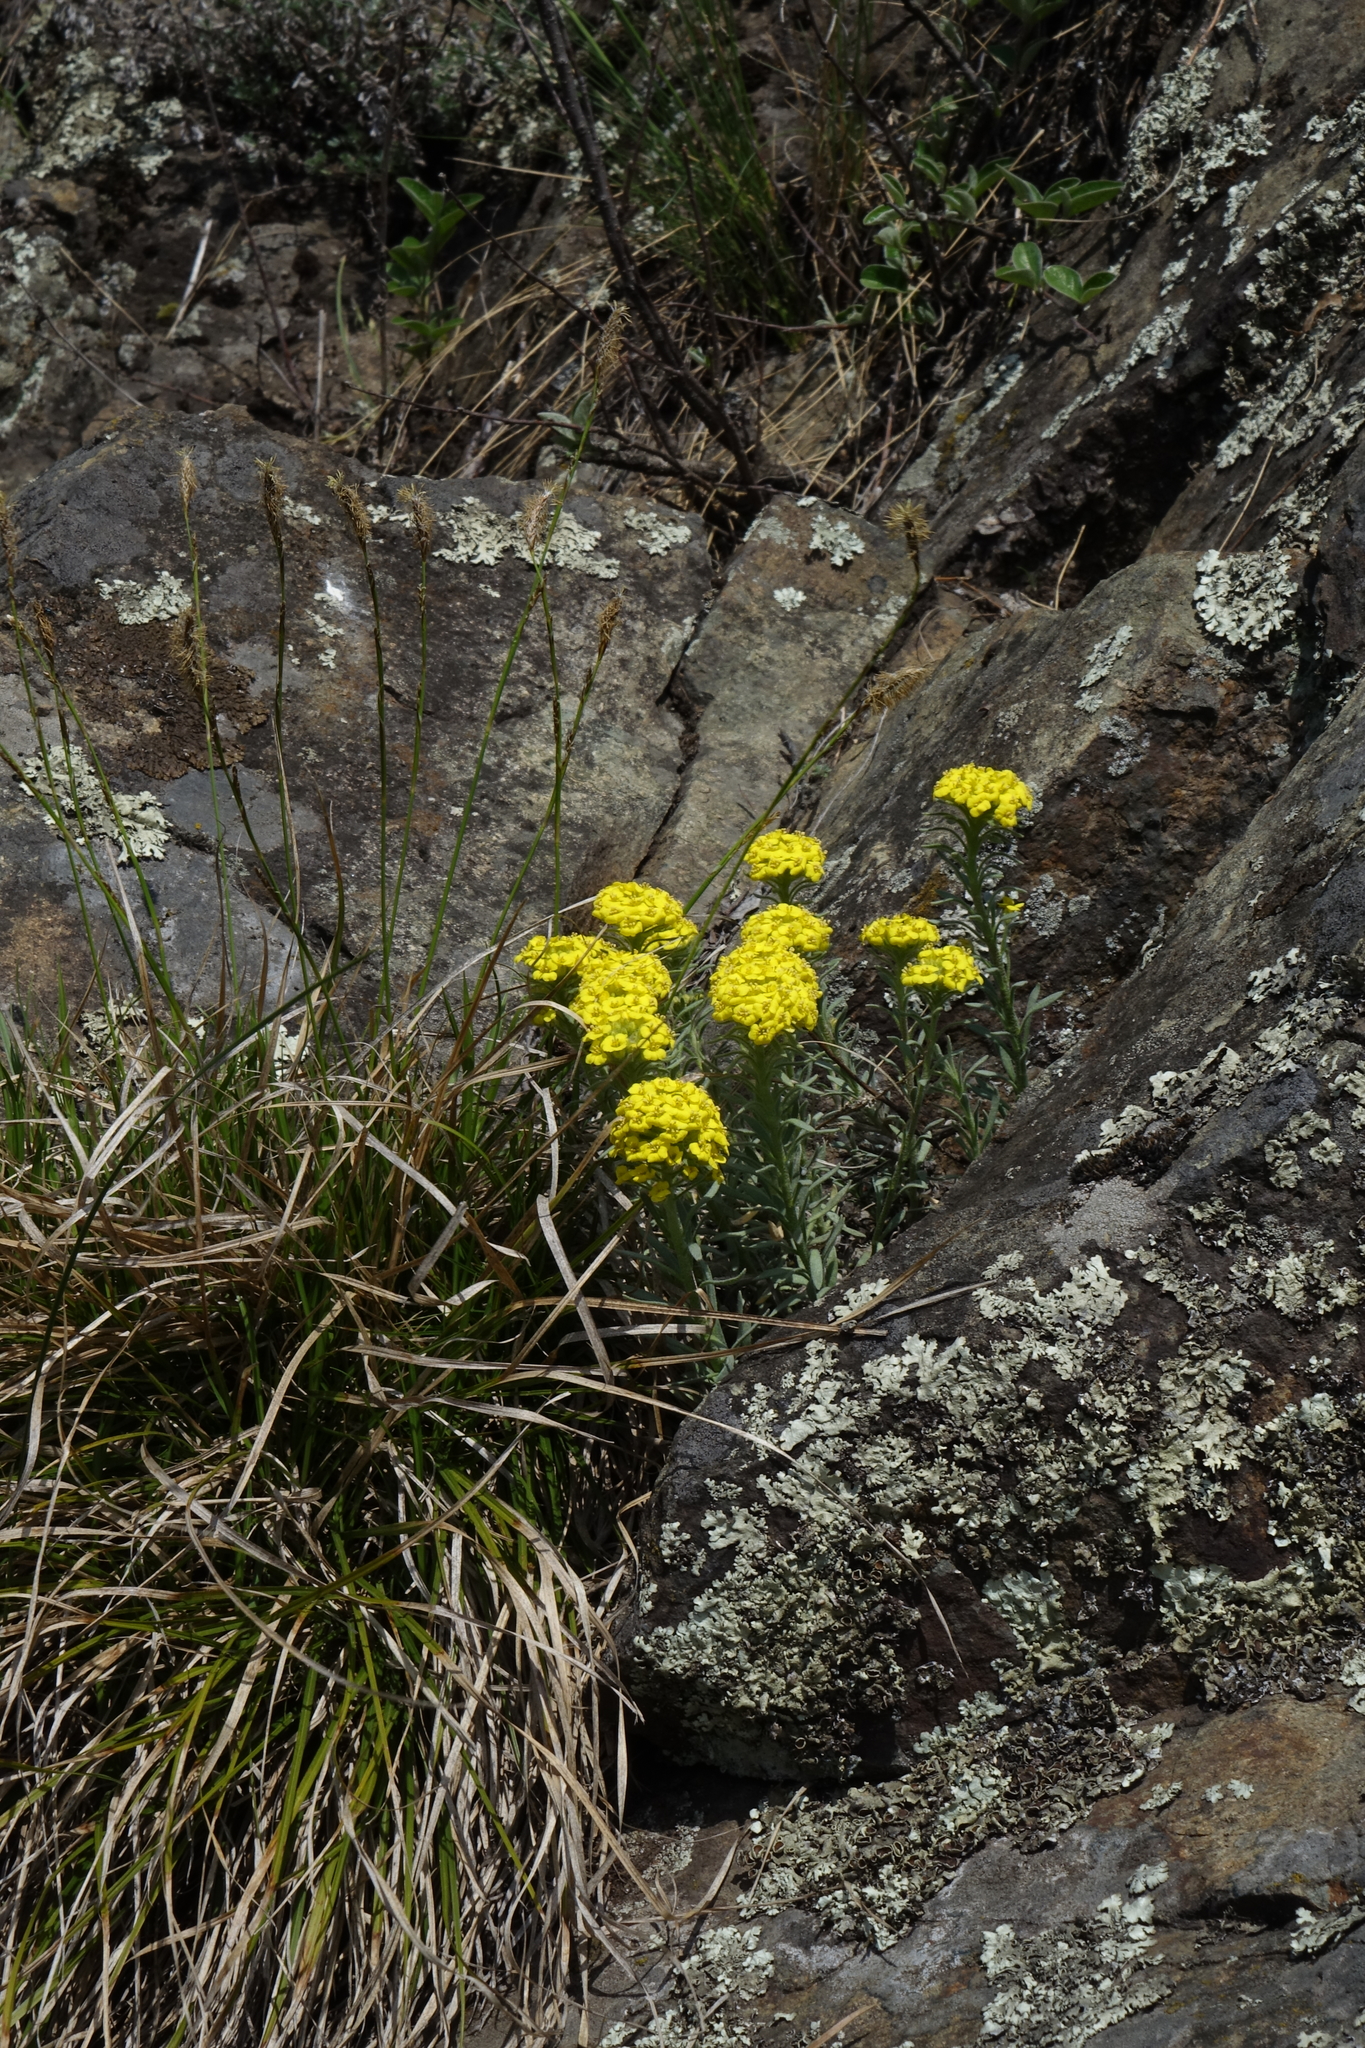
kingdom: Plantae
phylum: Tracheophyta
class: Magnoliopsida
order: Brassicales
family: Brassicaceae
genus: Alyssum
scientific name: Alyssum lenense
